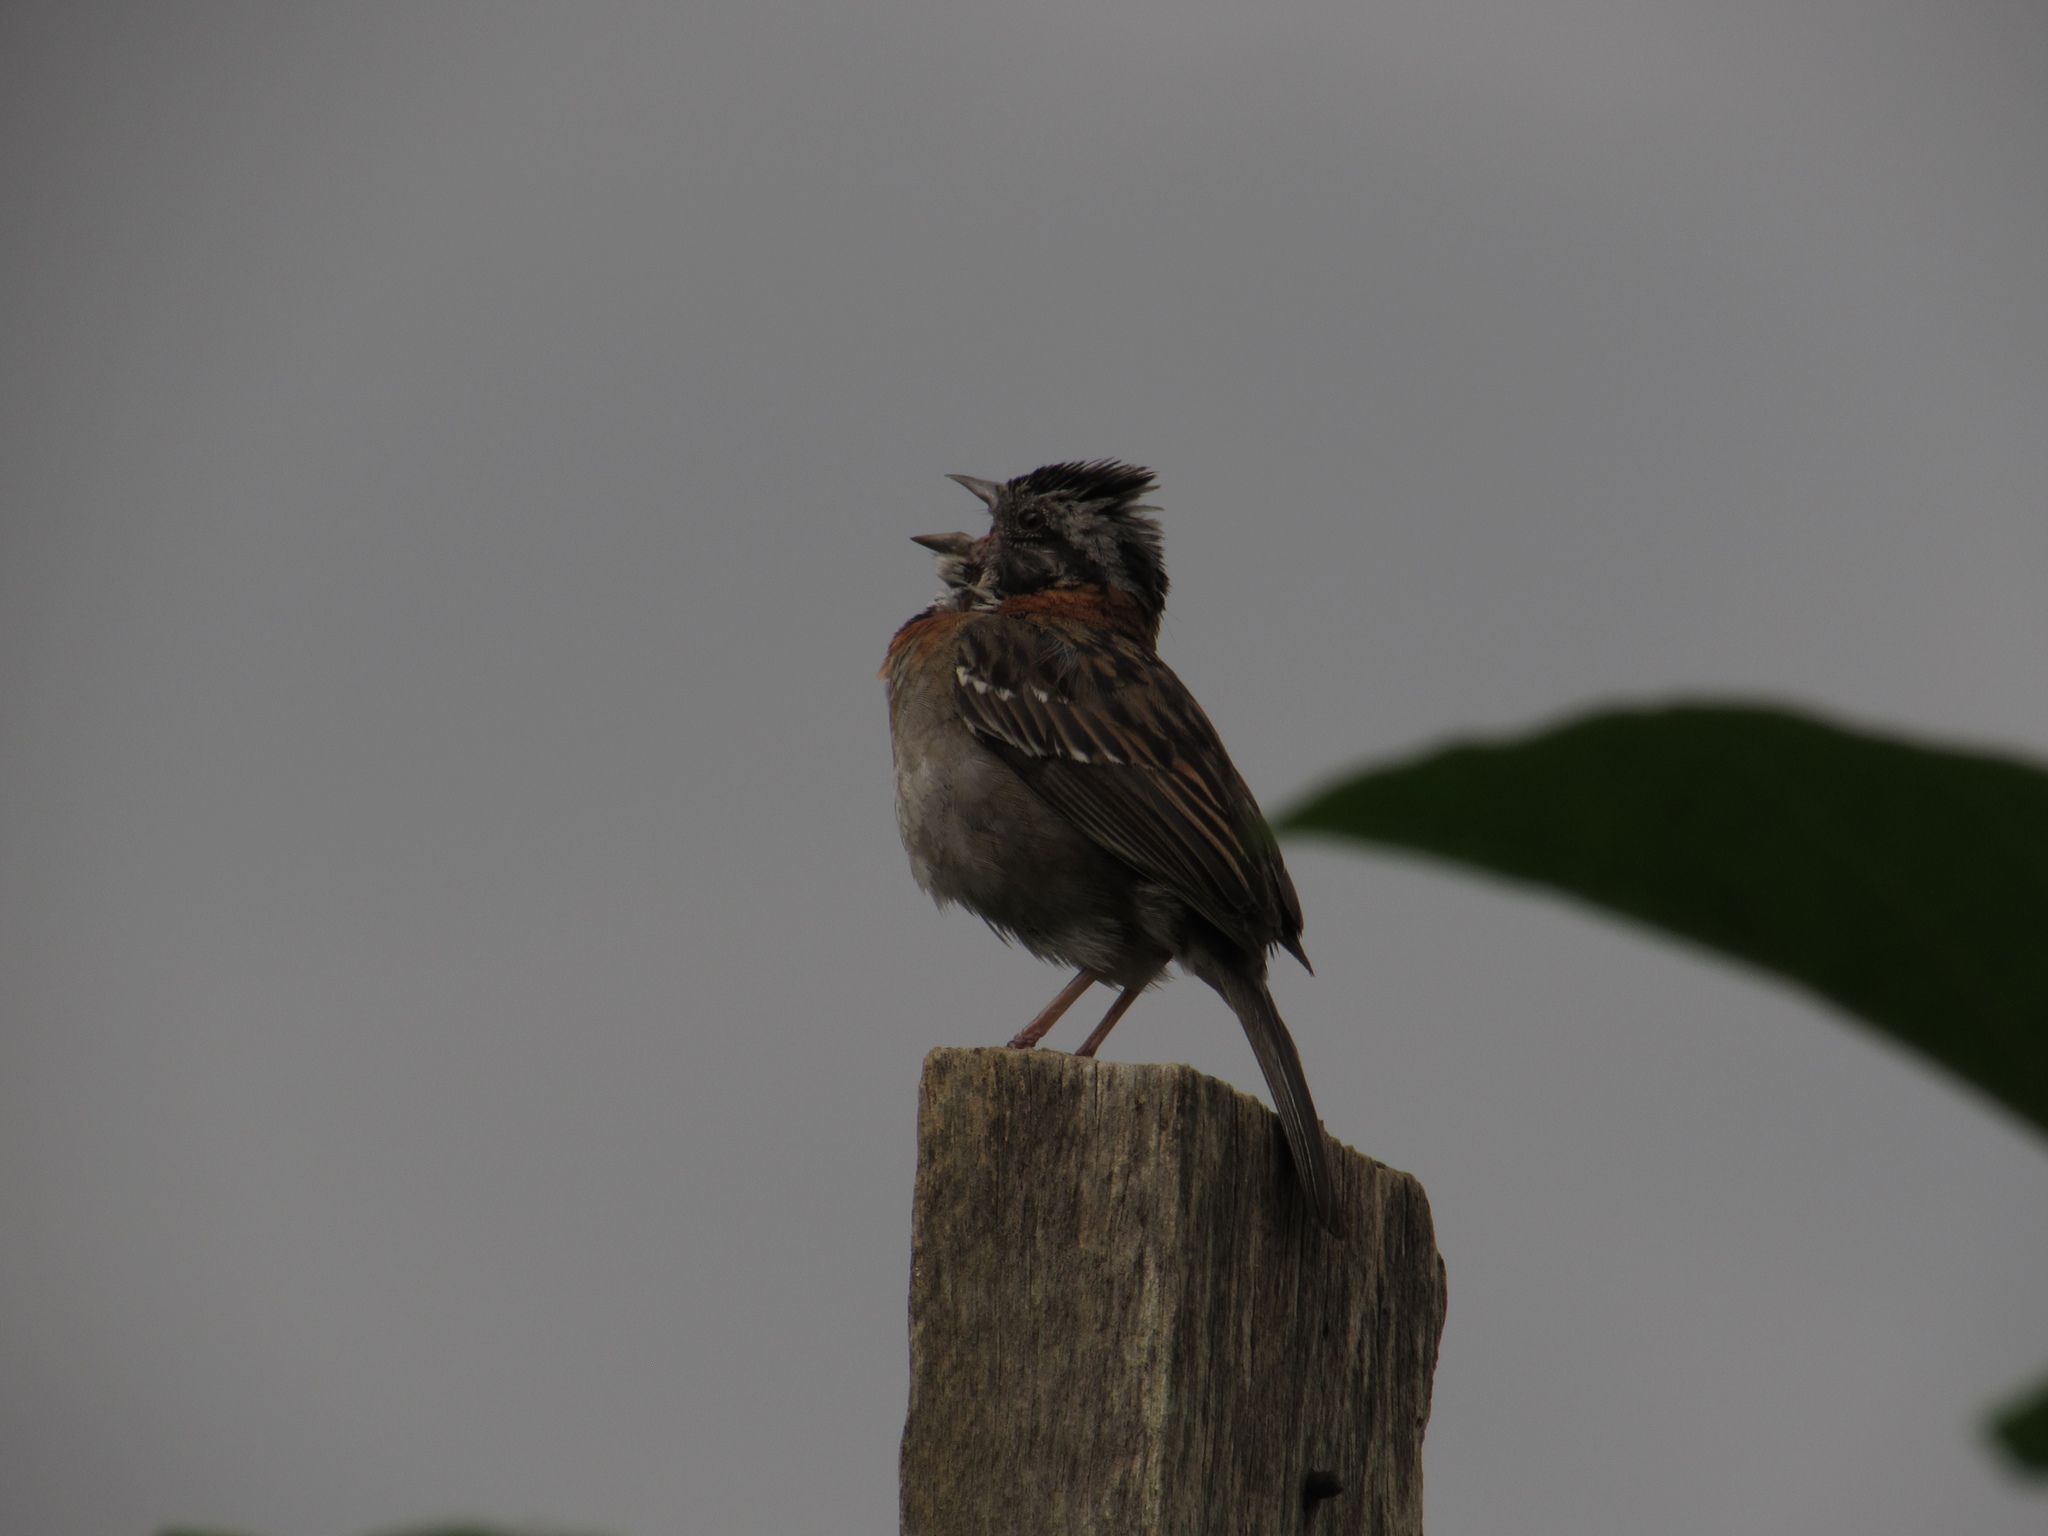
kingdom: Animalia
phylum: Chordata
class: Aves
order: Passeriformes
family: Passerellidae
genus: Zonotrichia
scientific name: Zonotrichia capensis
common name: Rufous-collared sparrow
